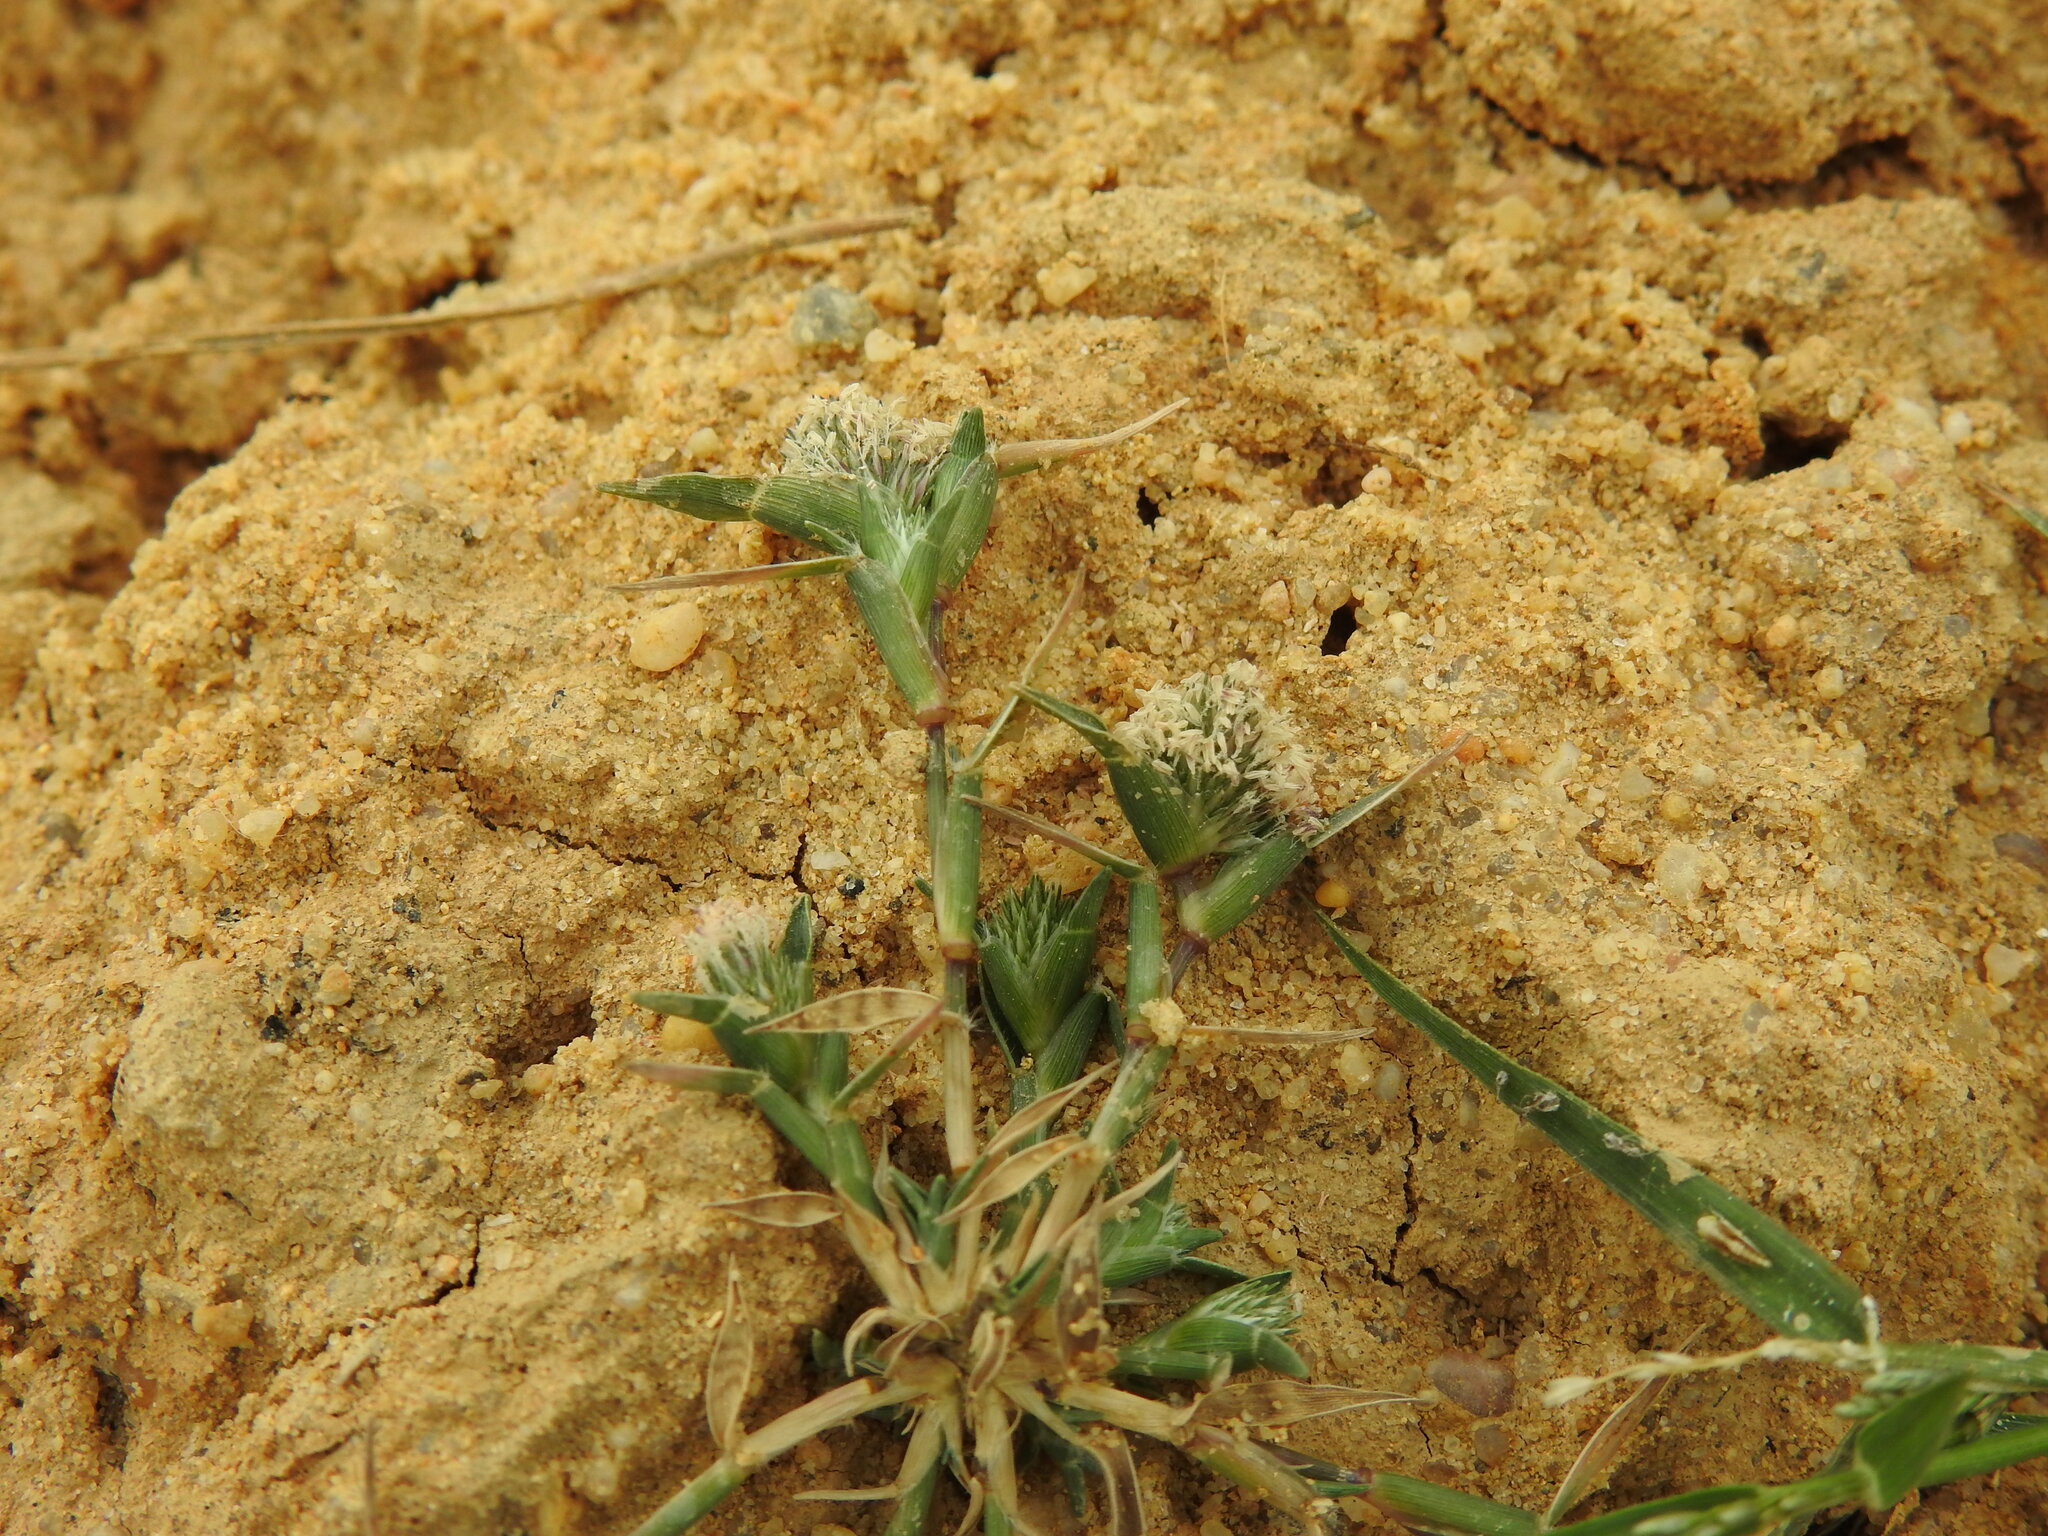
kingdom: Plantae
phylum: Tracheophyta
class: Liliopsida
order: Poales
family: Poaceae
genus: Sporobolus
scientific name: Sporobolus schoenoides
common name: Rush-like timothy
